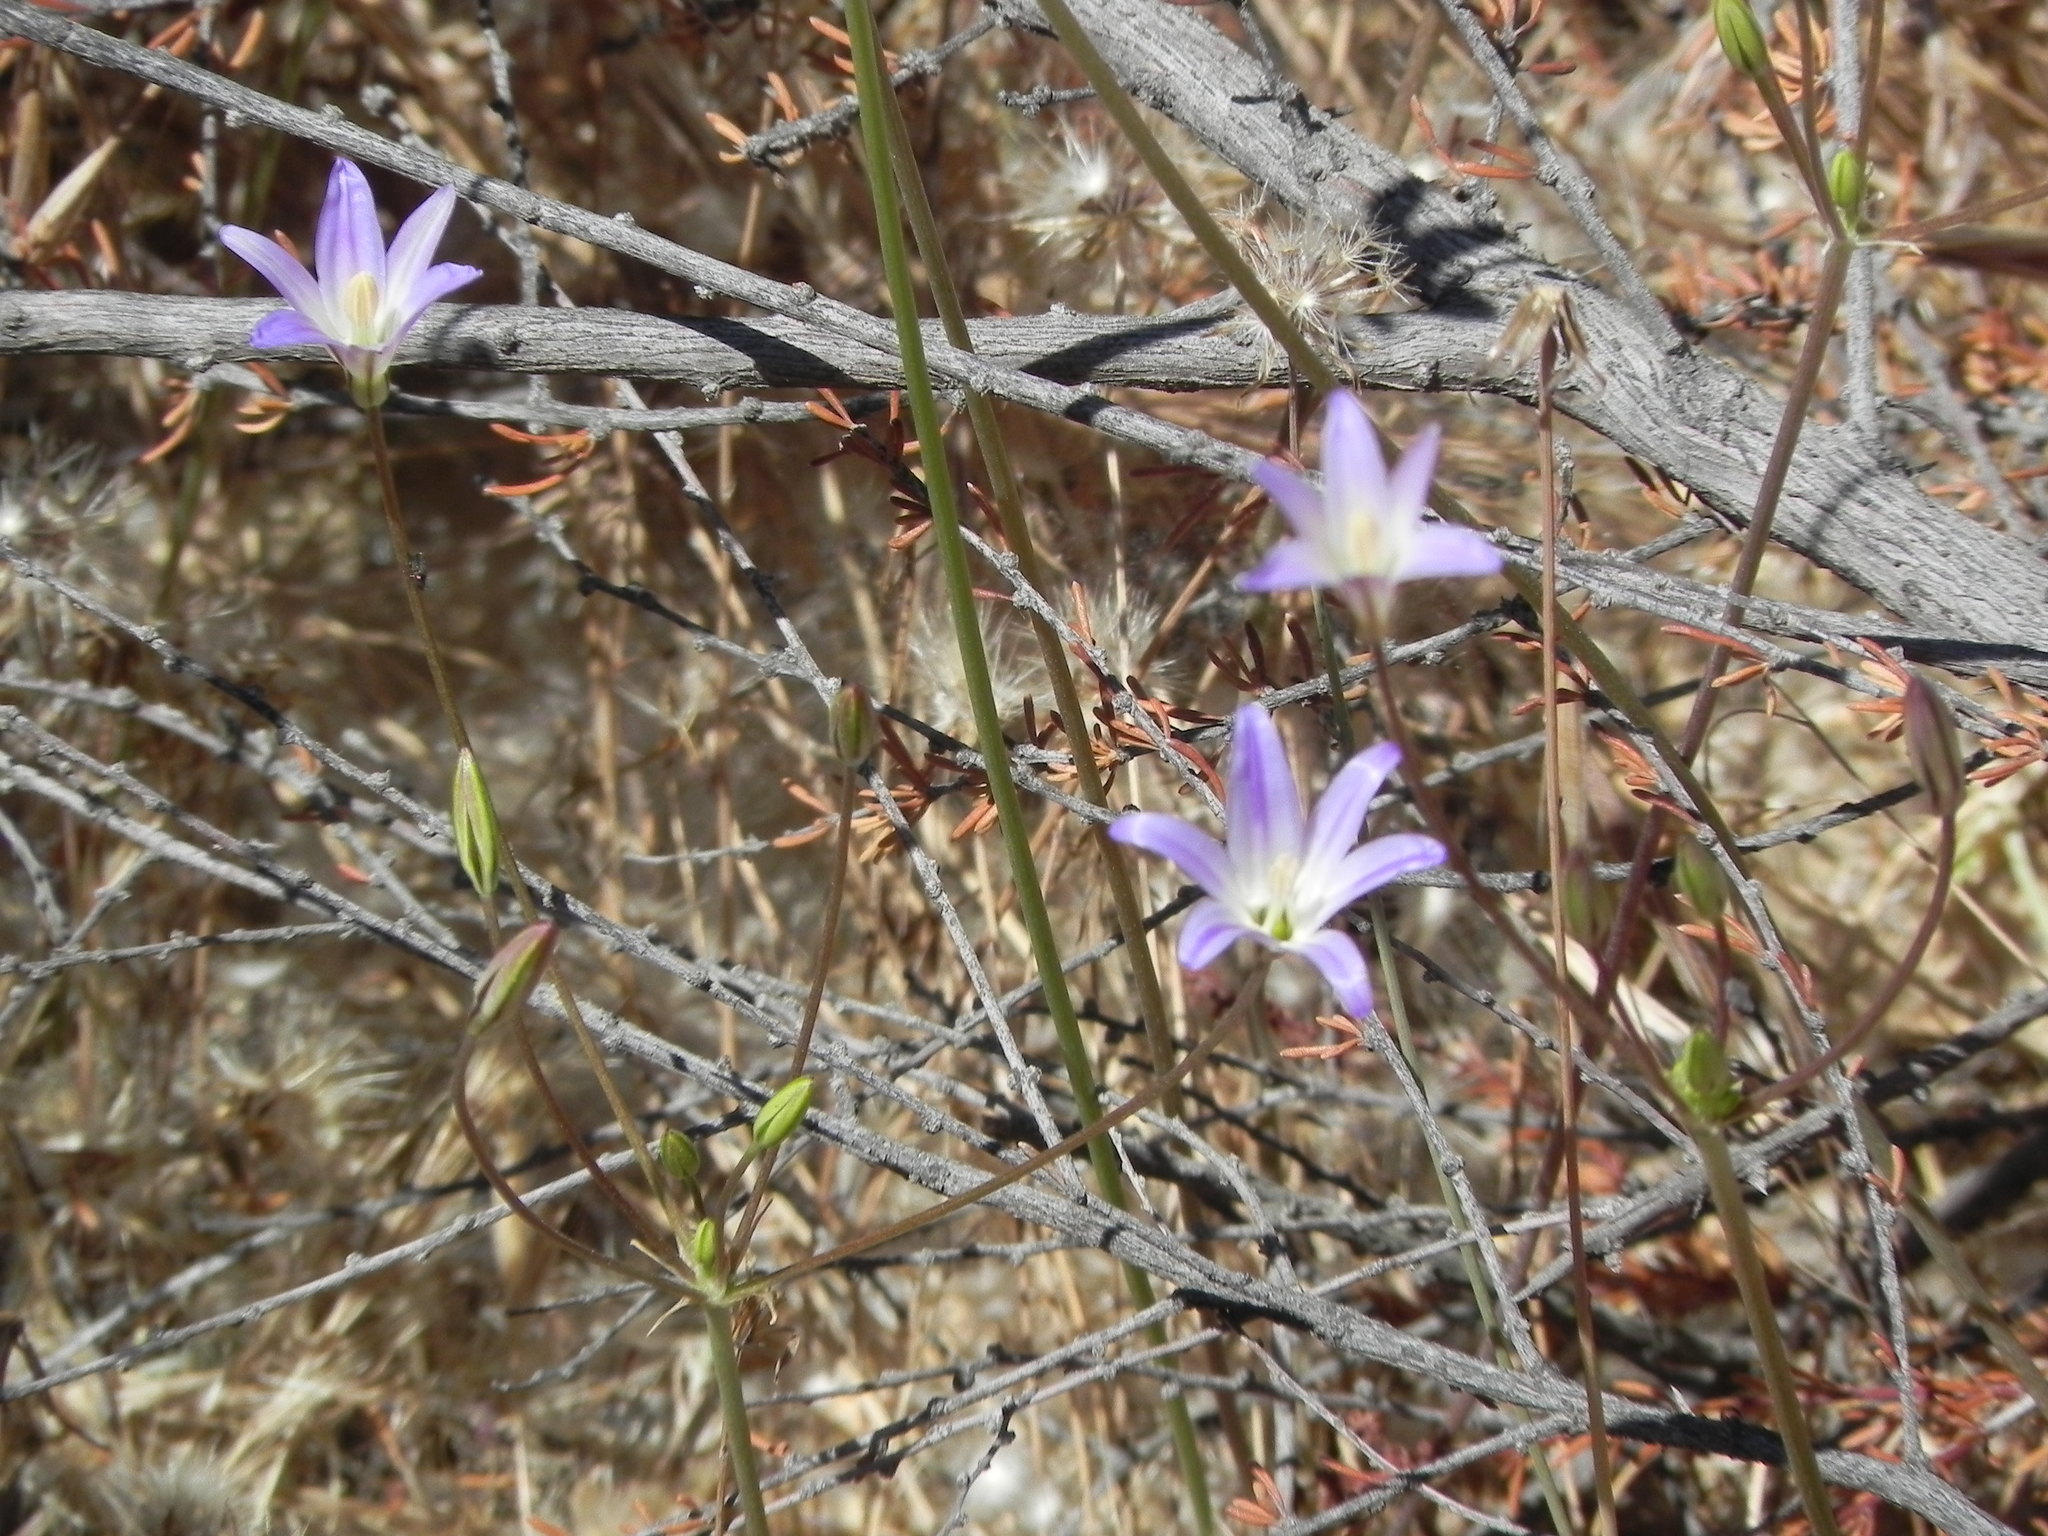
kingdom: Plantae
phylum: Tracheophyta
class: Liliopsida
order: Asparagales
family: Asparagaceae
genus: Brodiaea
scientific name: Brodiaea orcuttii
